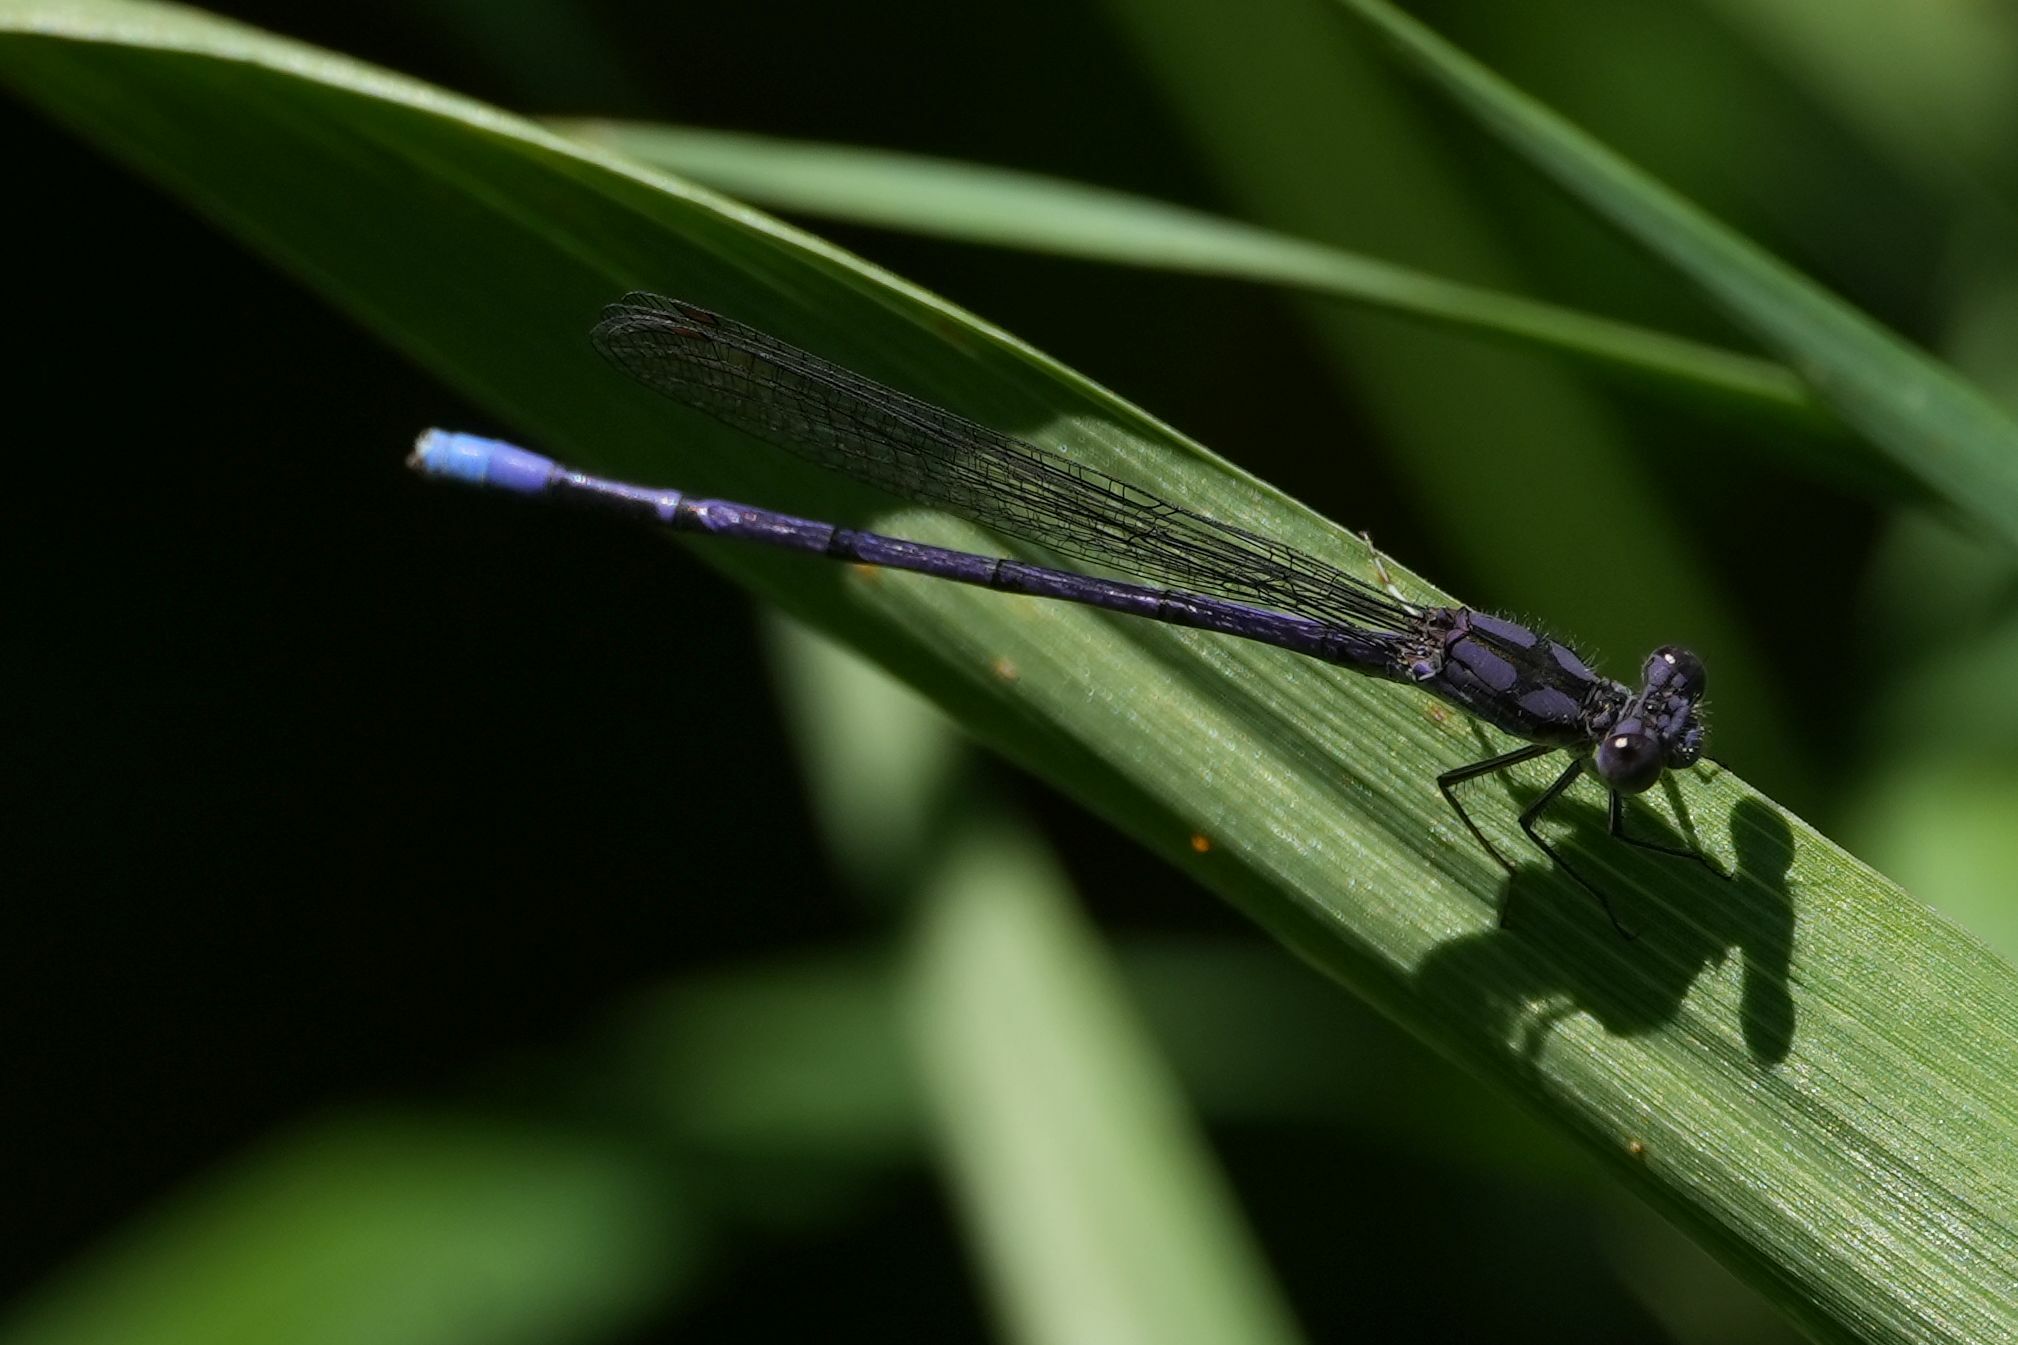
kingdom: Animalia
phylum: Arthropoda
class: Insecta
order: Odonata
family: Coenagrionidae
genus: Argia
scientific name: Argia fumipennis
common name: Variable dancer
